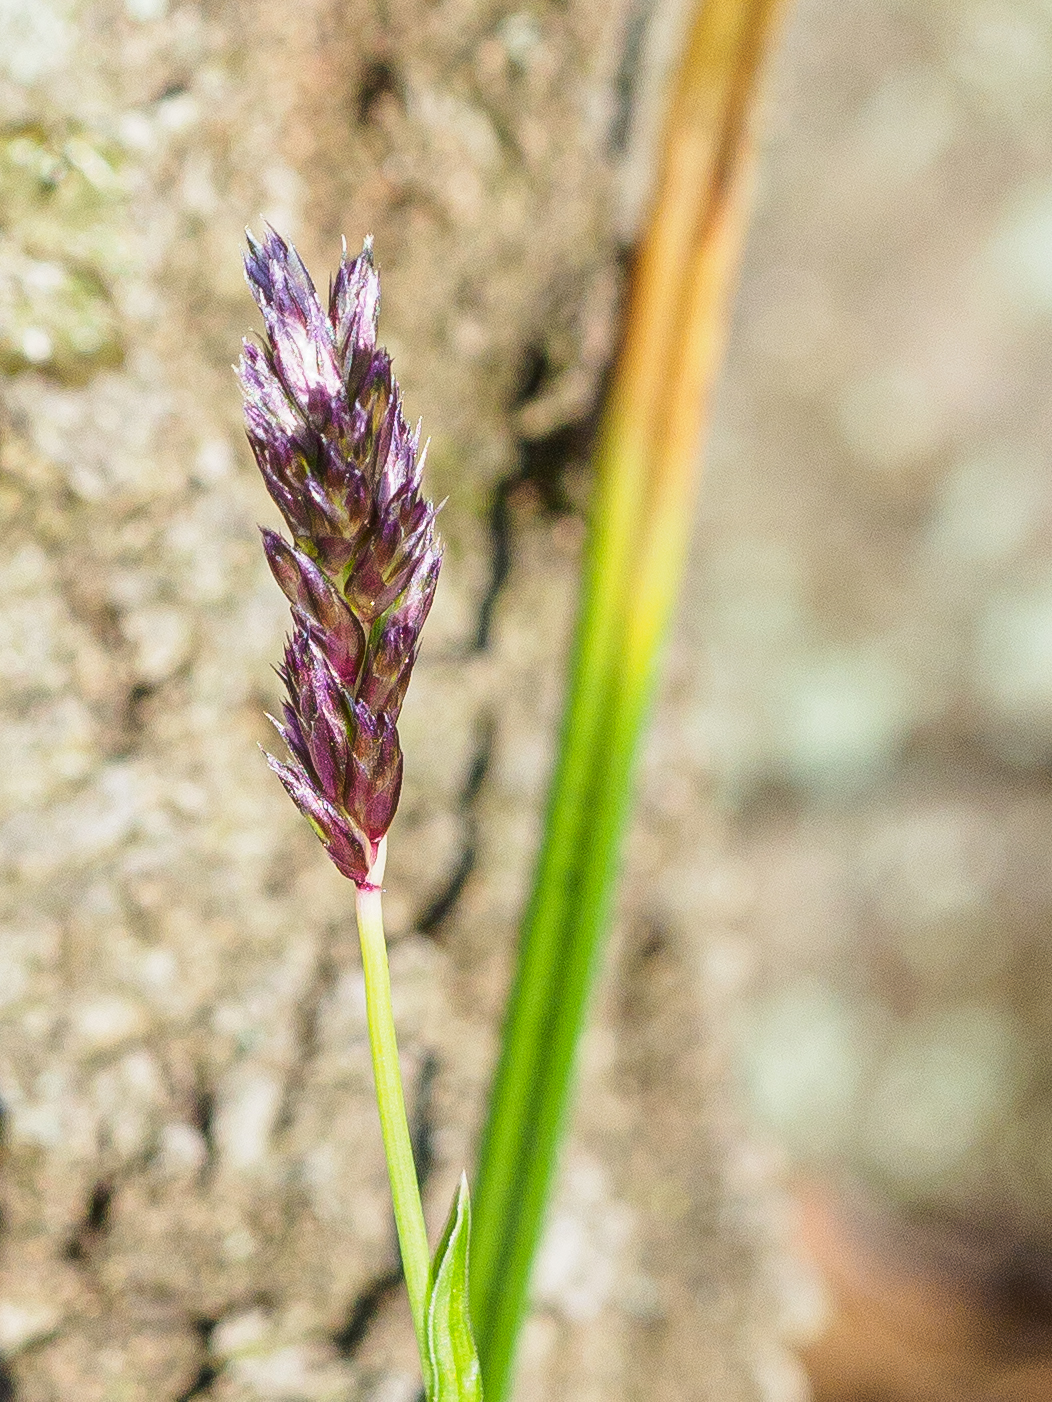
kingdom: Plantae
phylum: Tracheophyta
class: Liliopsida
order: Poales
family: Poaceae
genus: Sesleria
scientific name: Sesleria caerulea
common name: Blue moor-grass
